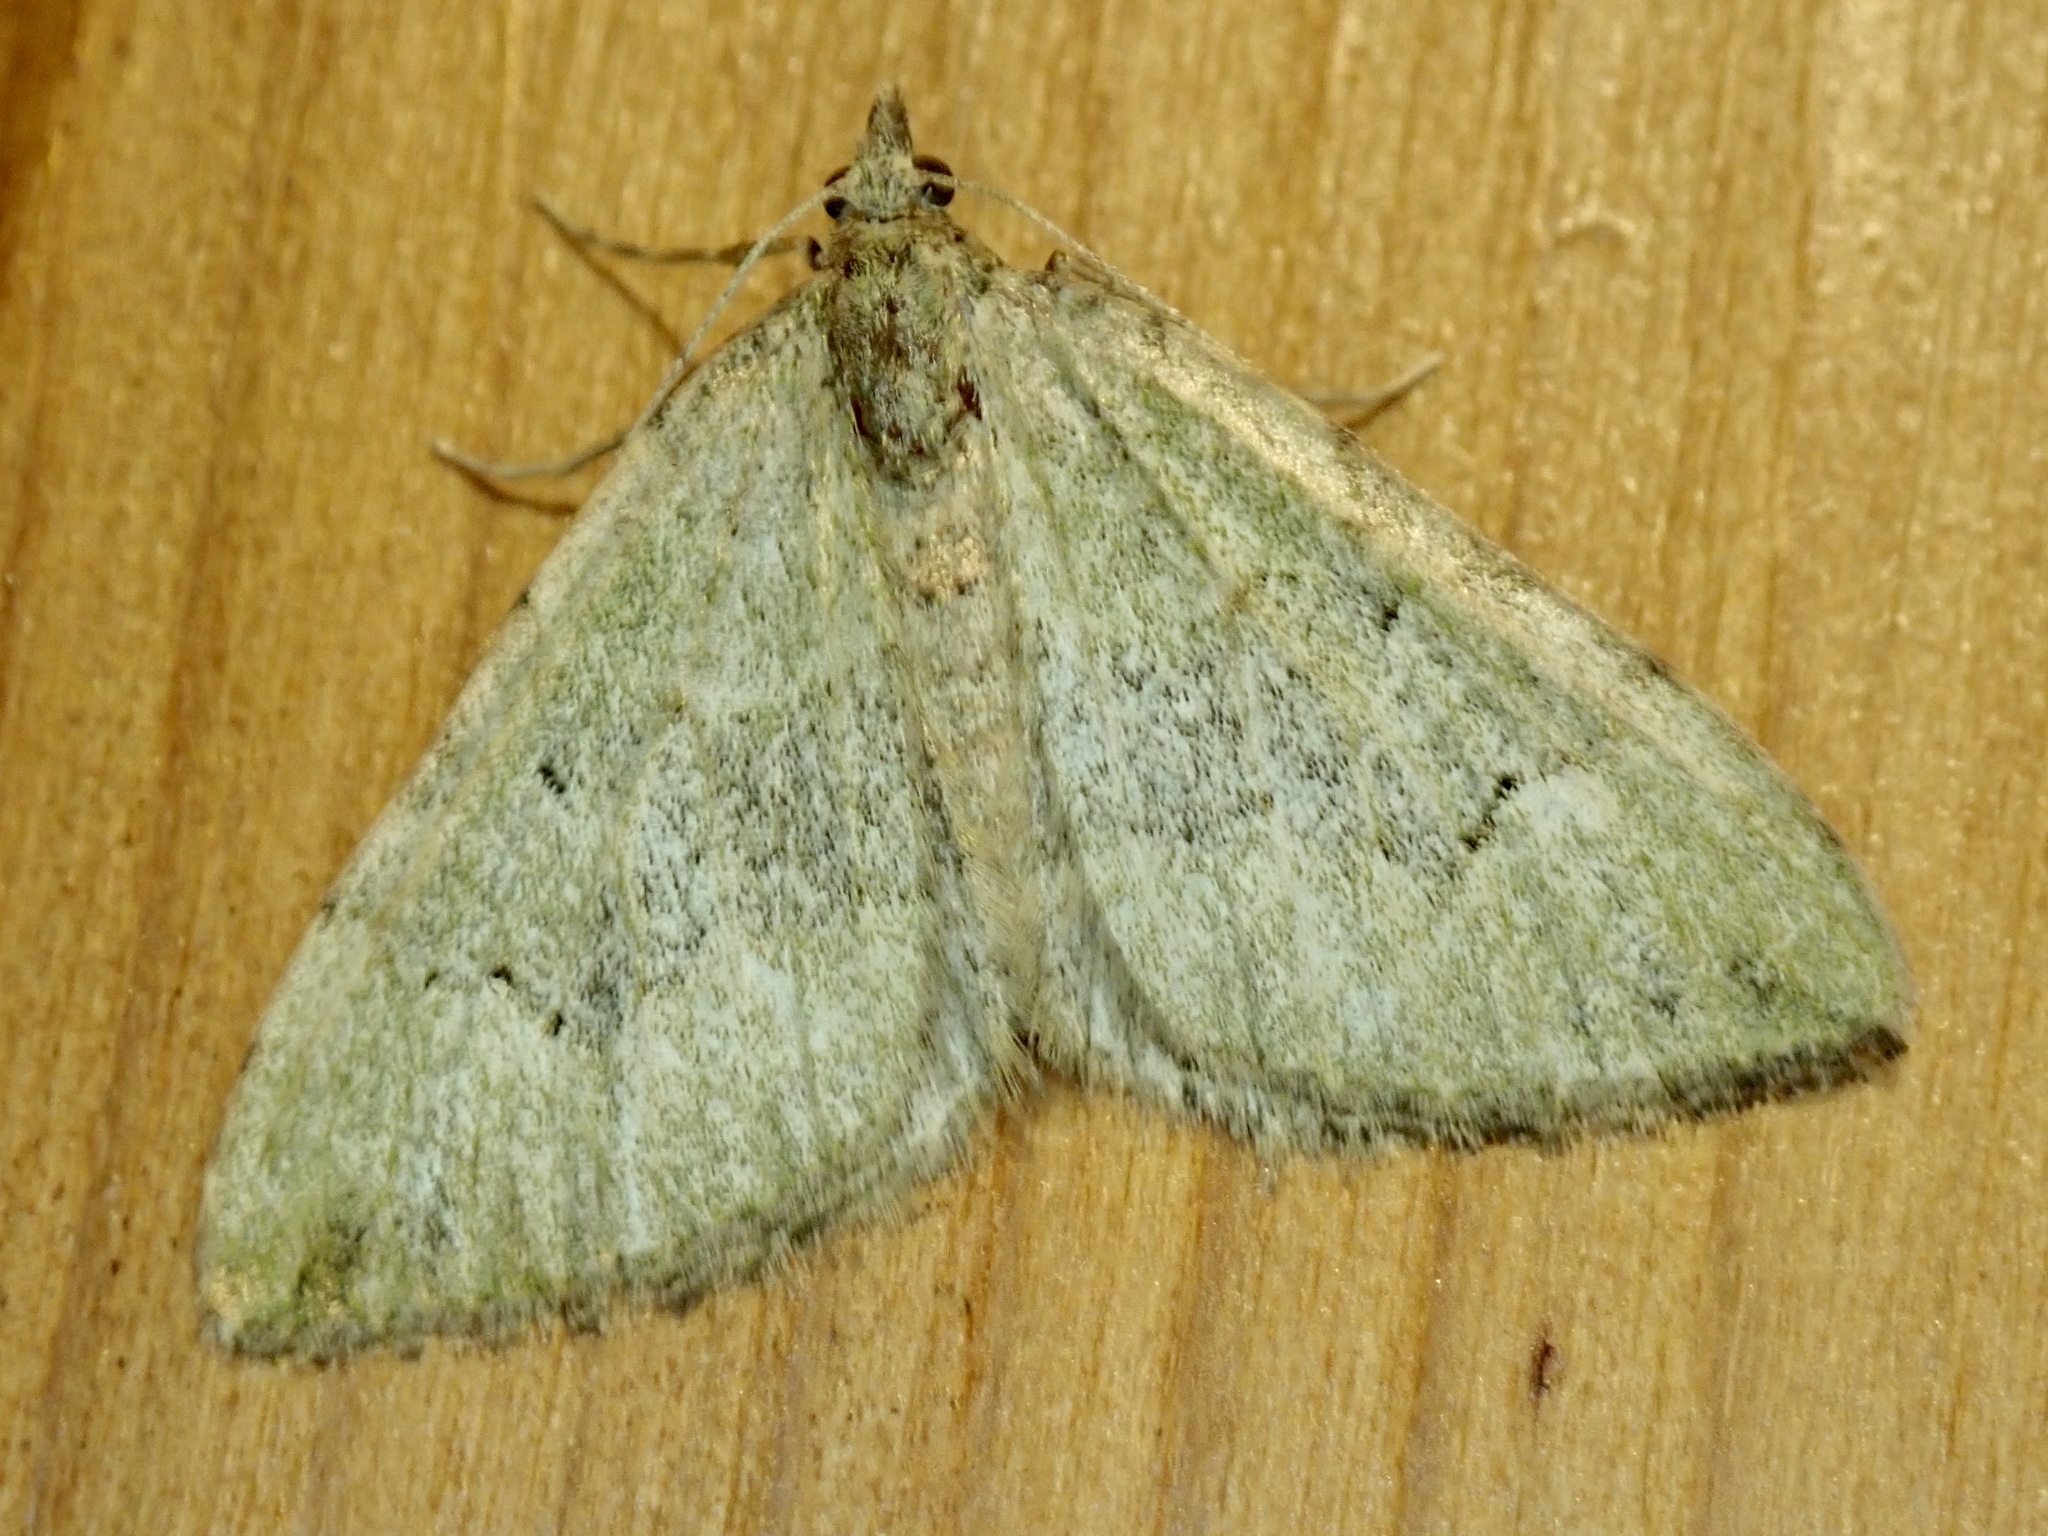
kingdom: Animalia
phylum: Arthropoda
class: Insecta
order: Lepidoptera
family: Geometridae
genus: Epyaxa
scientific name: Epyaxa rosearia
